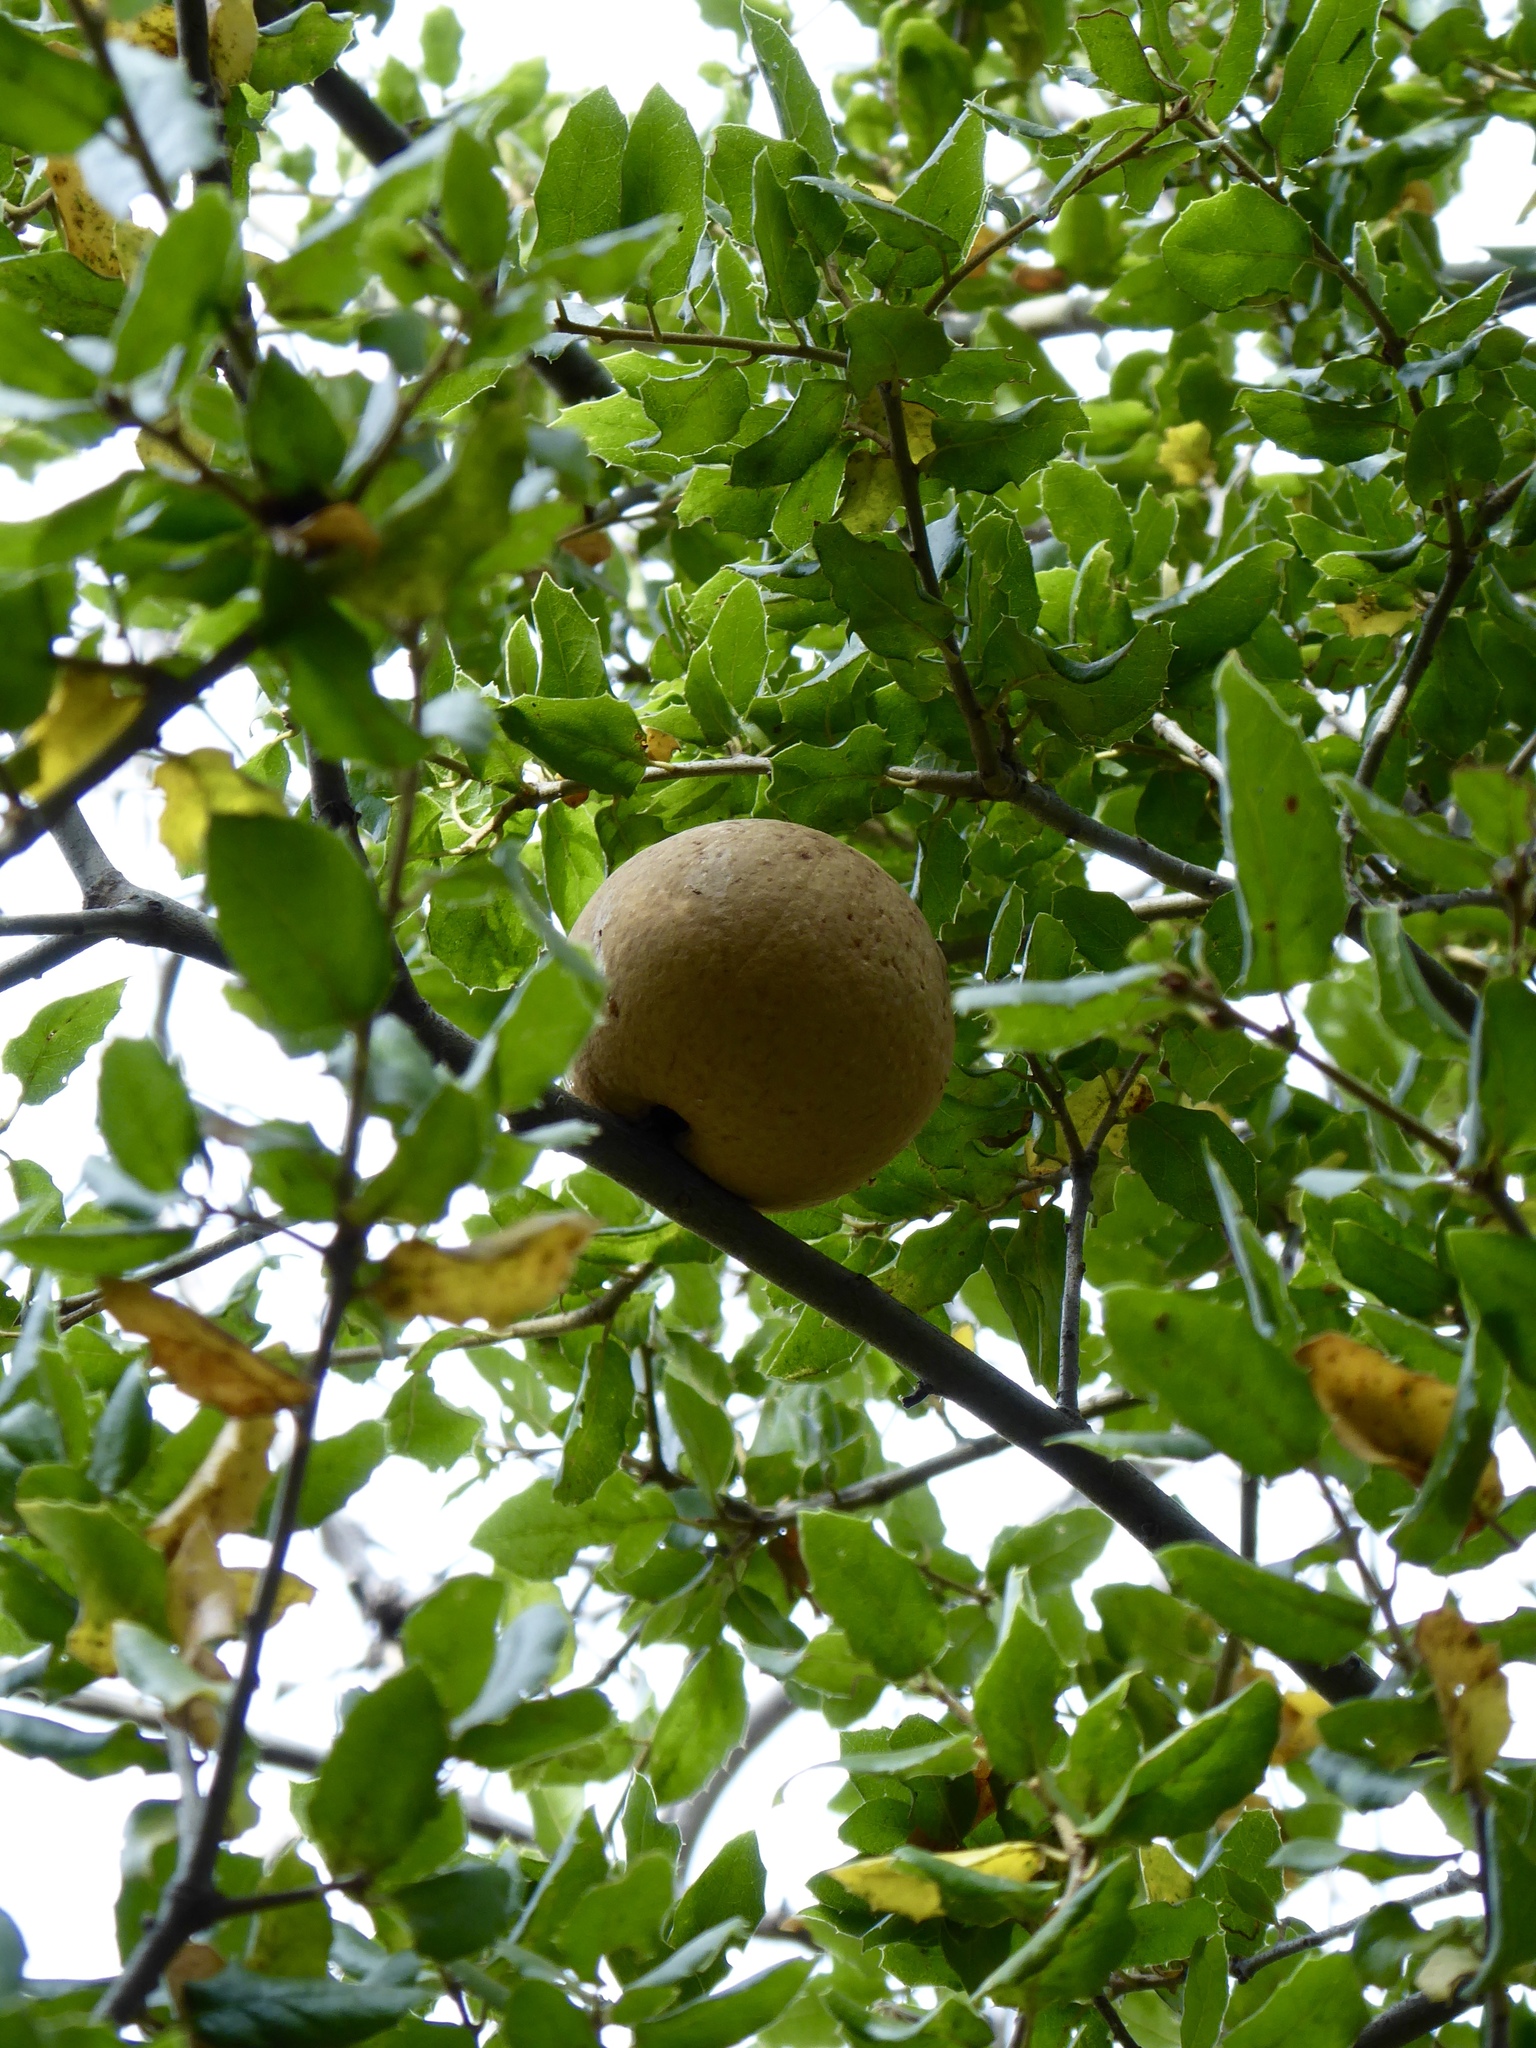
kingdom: Animalia
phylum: Arthropoda
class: Insecta
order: Hymenoptera
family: Cynipidae
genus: Andricus
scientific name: Andricus quercuscalifornicus
